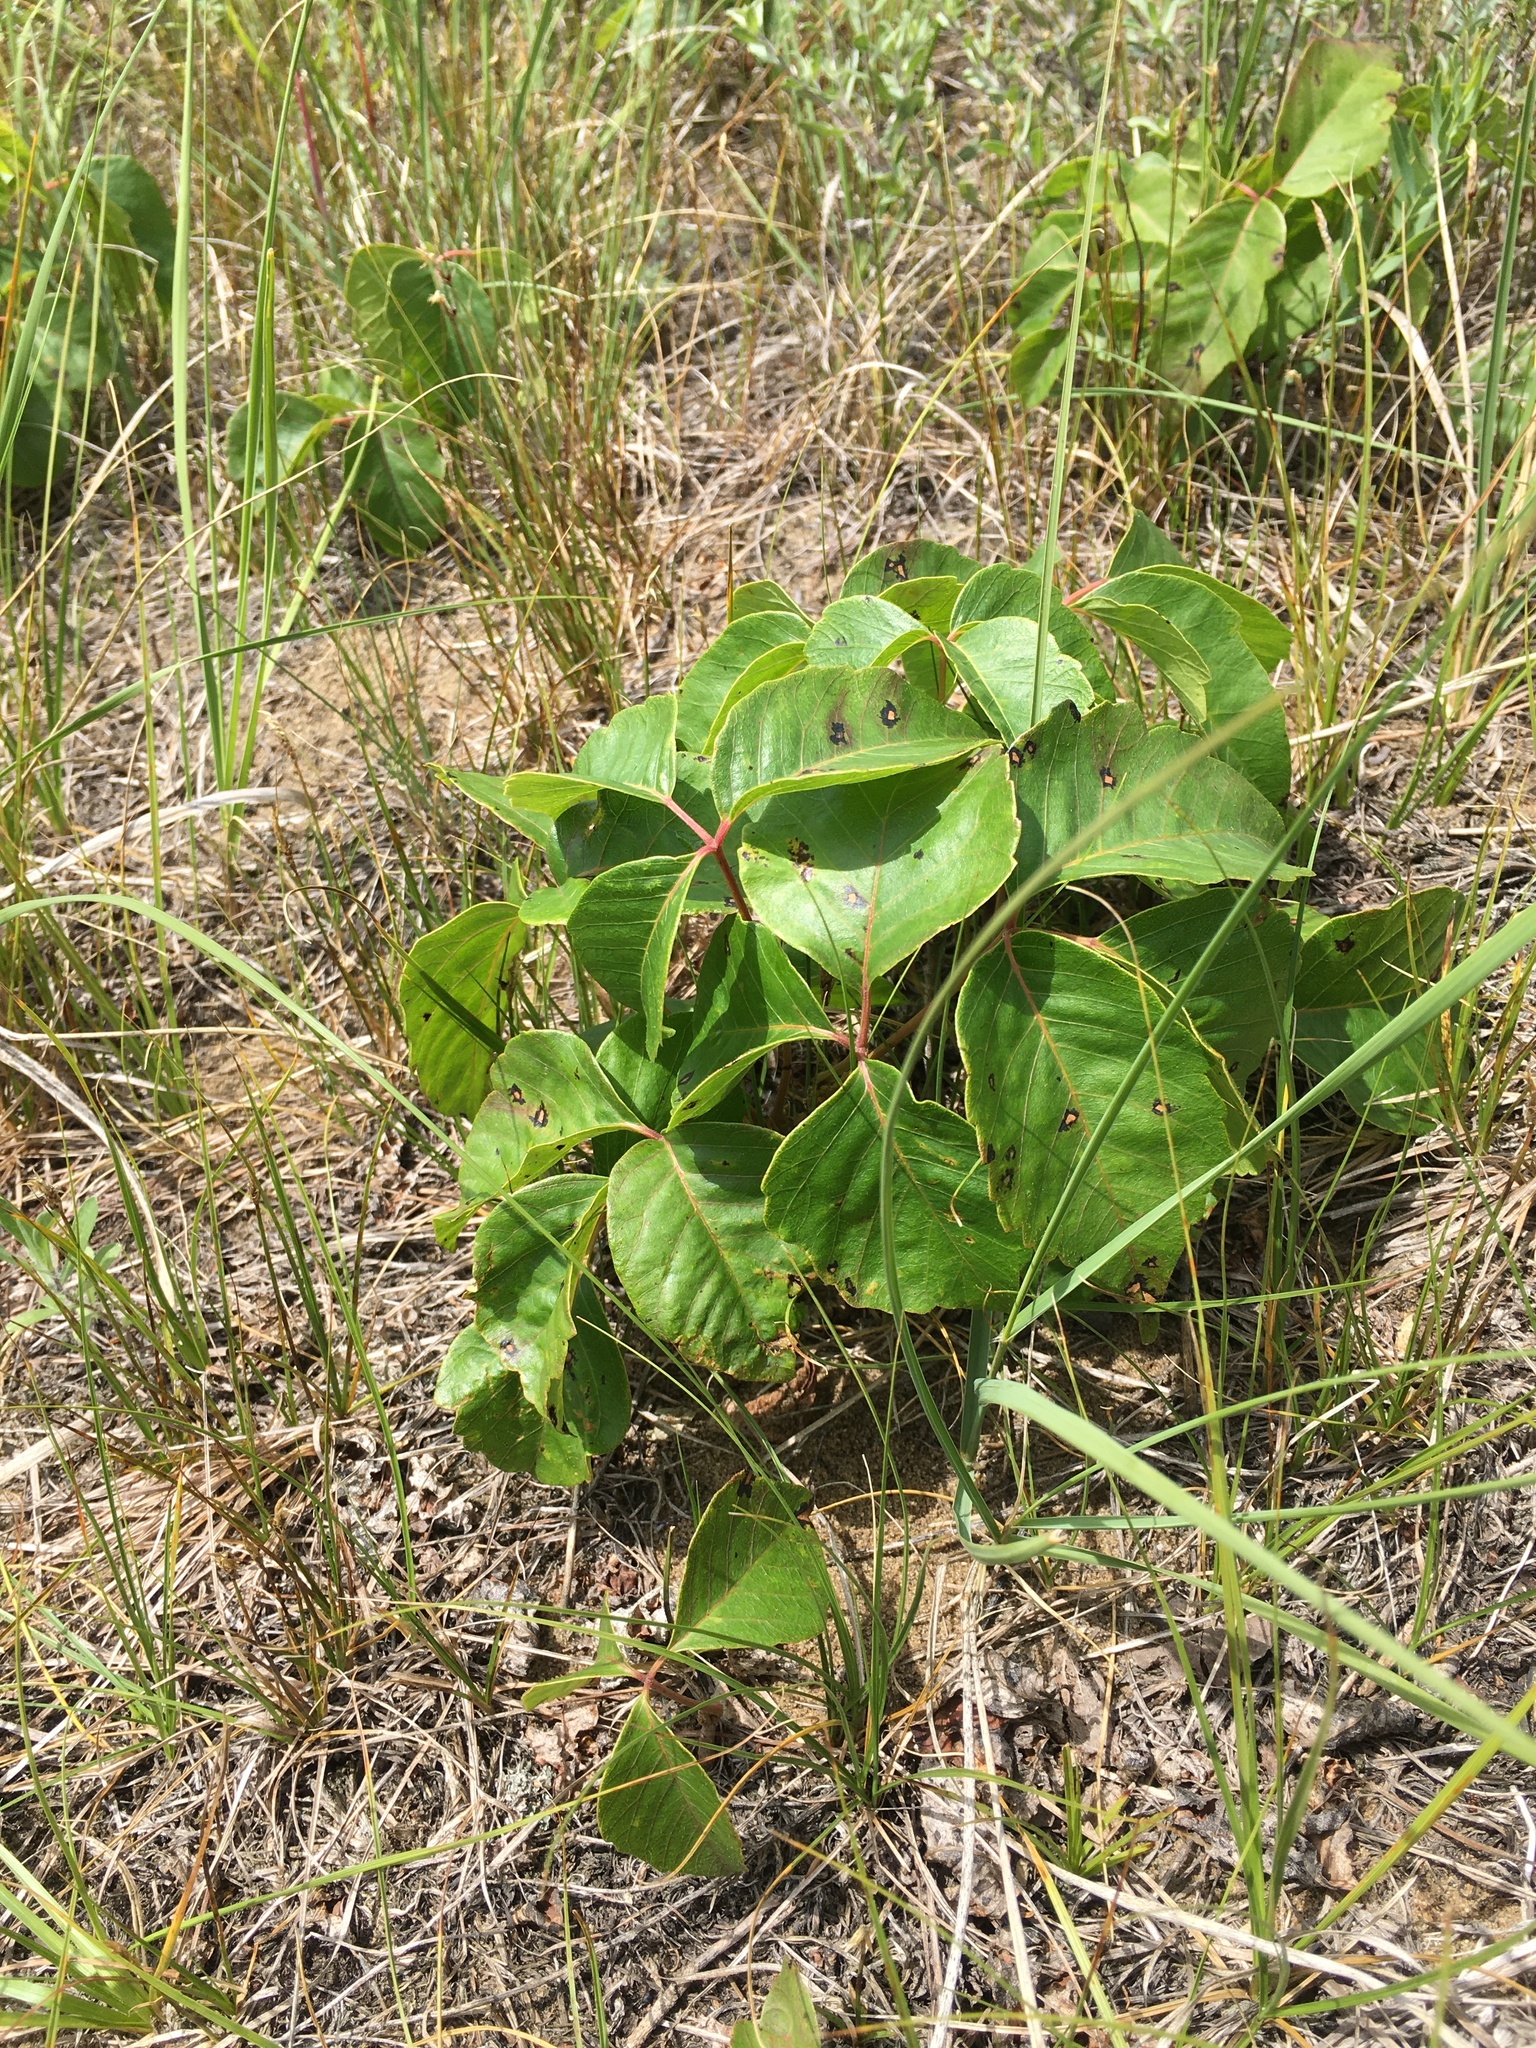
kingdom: Plantae
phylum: Tracheophyta
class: Magnoliopsida
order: Sapindales
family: Anacardiaceae
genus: Toxicodendron
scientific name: Toxicodendron rydbergii
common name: Rydberg's poison-ivy
